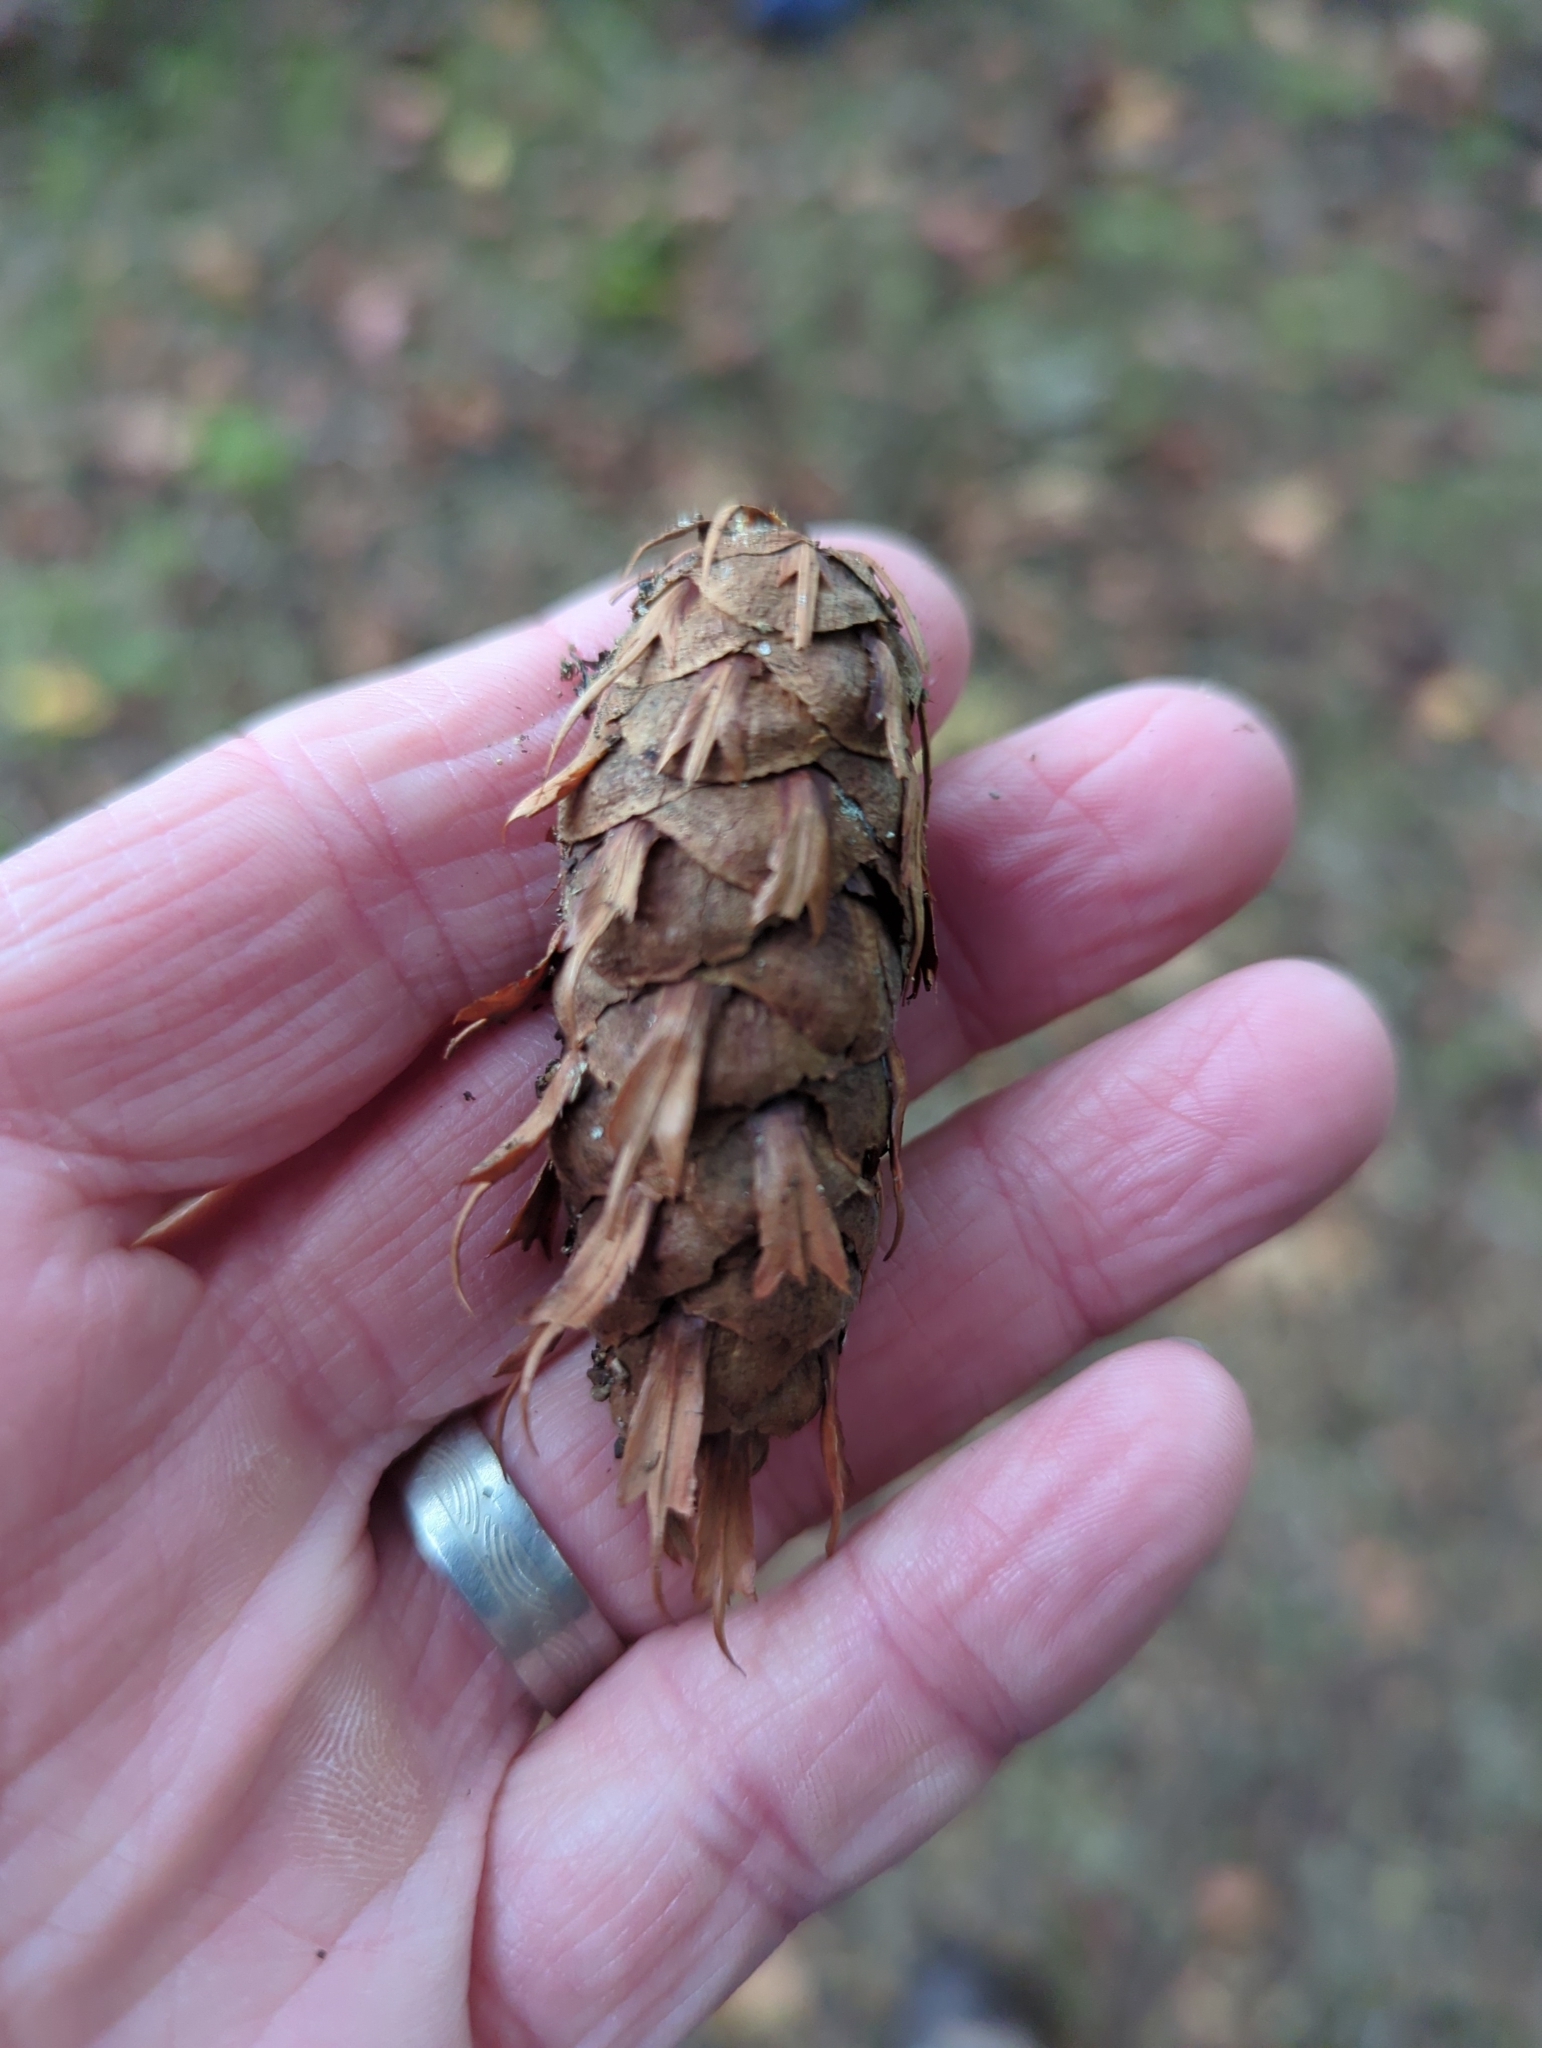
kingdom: Plantae
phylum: Tracheophyta
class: Pinopsida
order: Pinales
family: Pinaceae
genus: Pseudotsuga
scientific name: Pseudotsuga menziesii
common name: Douglas fir
